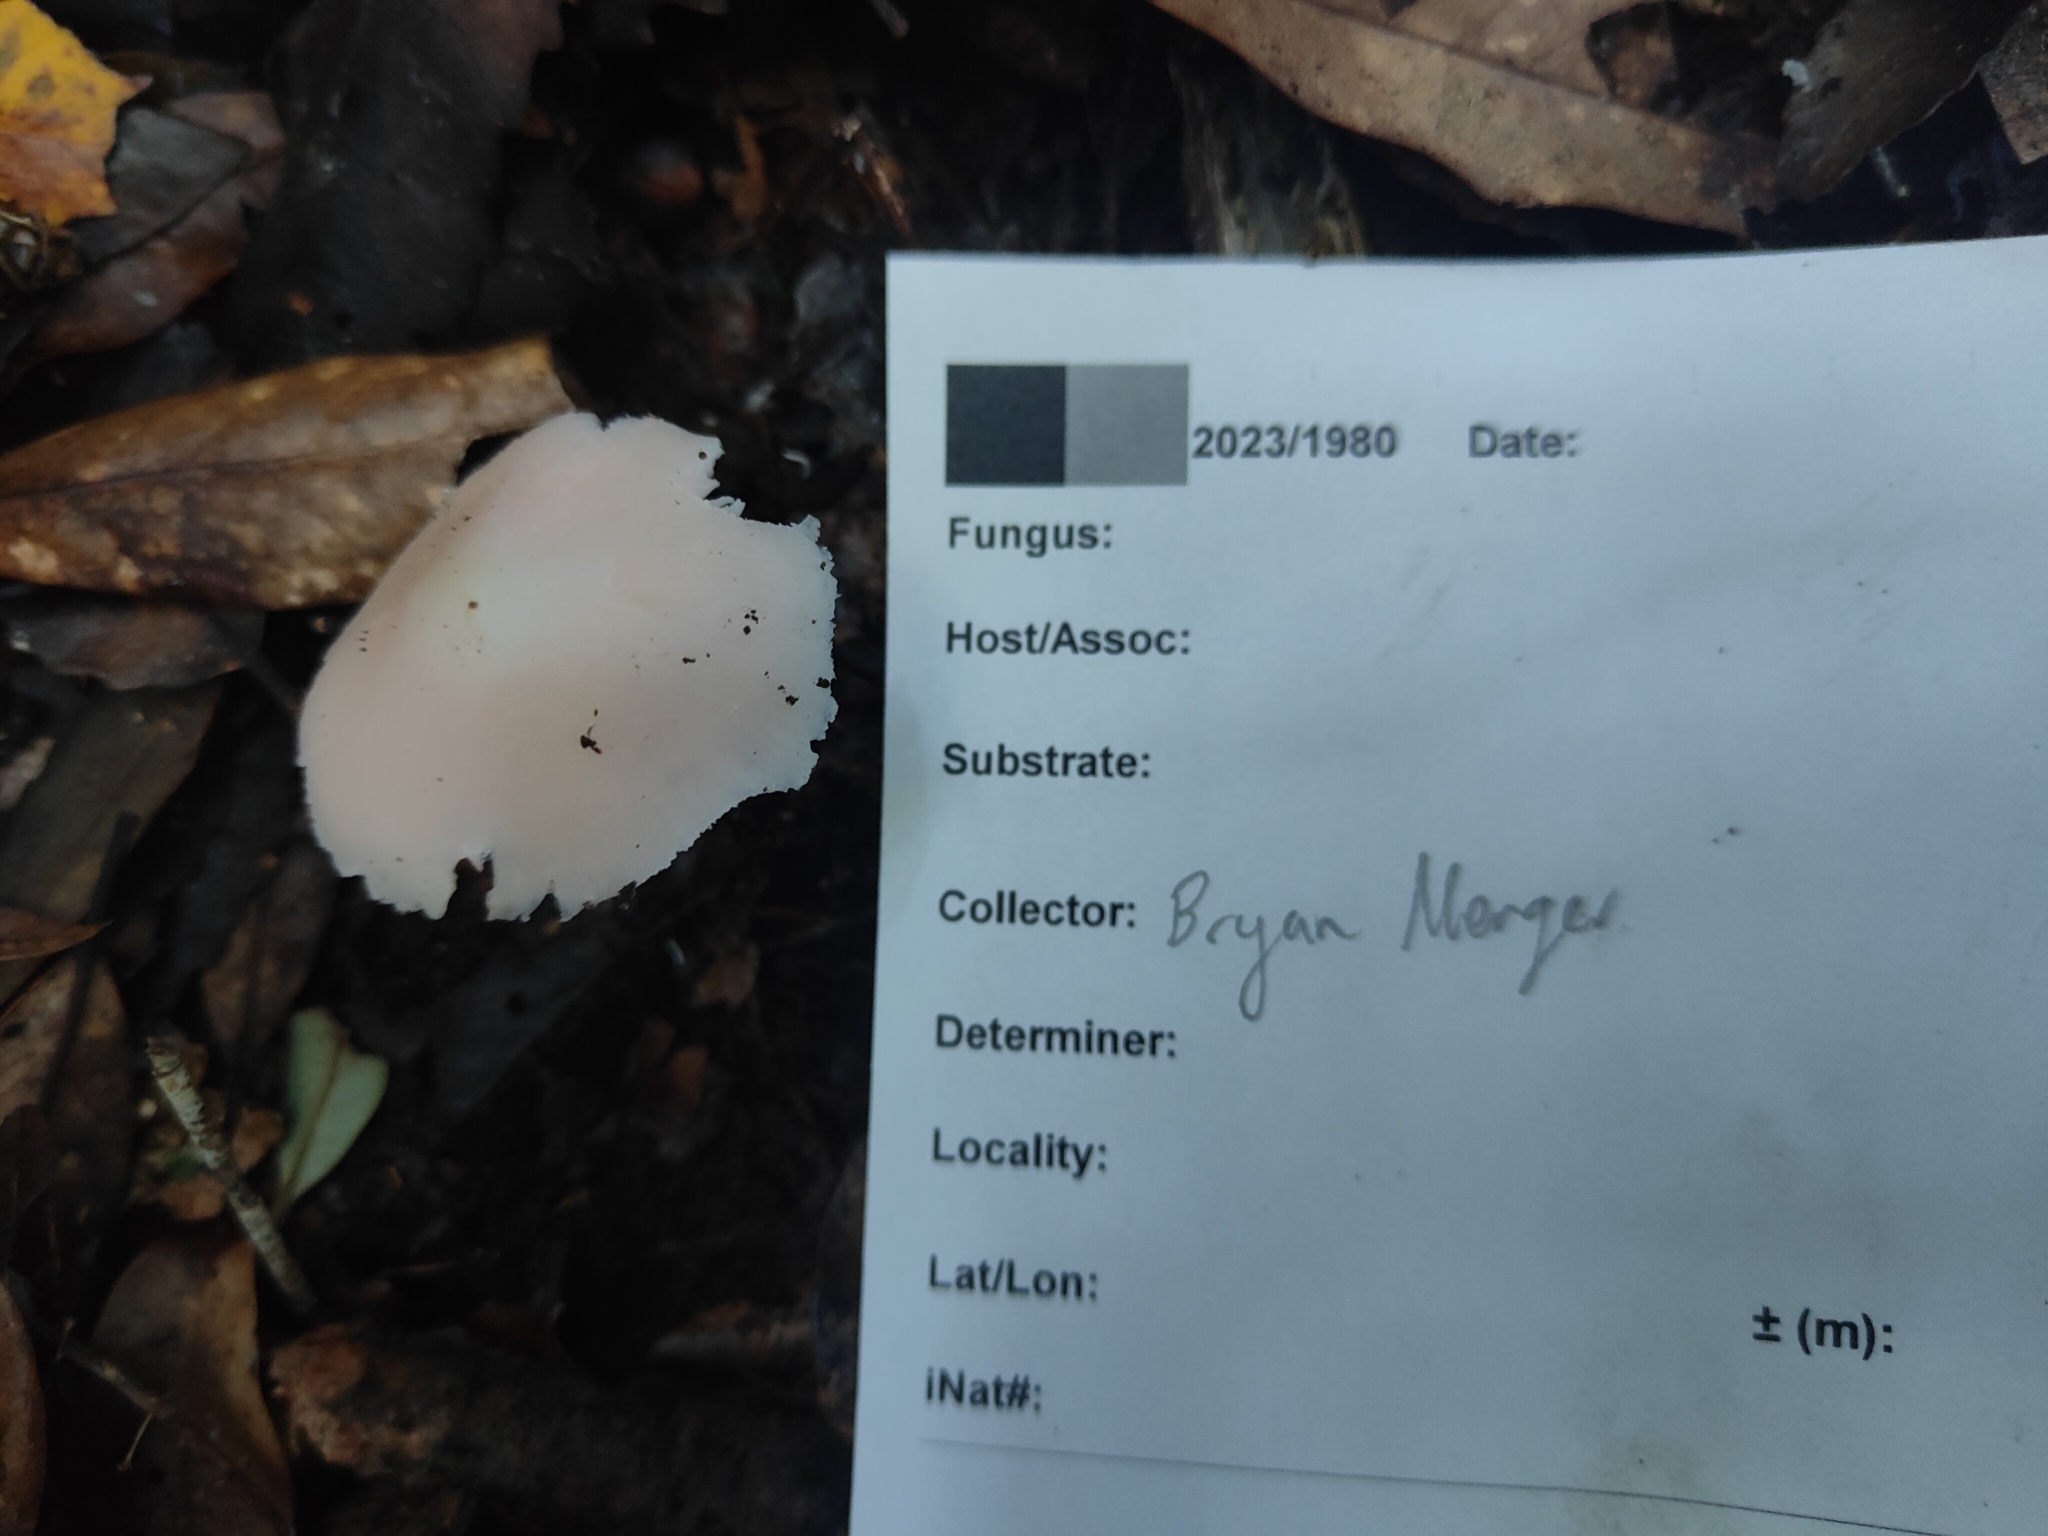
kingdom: Fungi
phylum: Basidiomycota
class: Agaricomycetes
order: Agaricales
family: Hygrophoraceae
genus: Humidicutis
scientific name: Humidicutis
